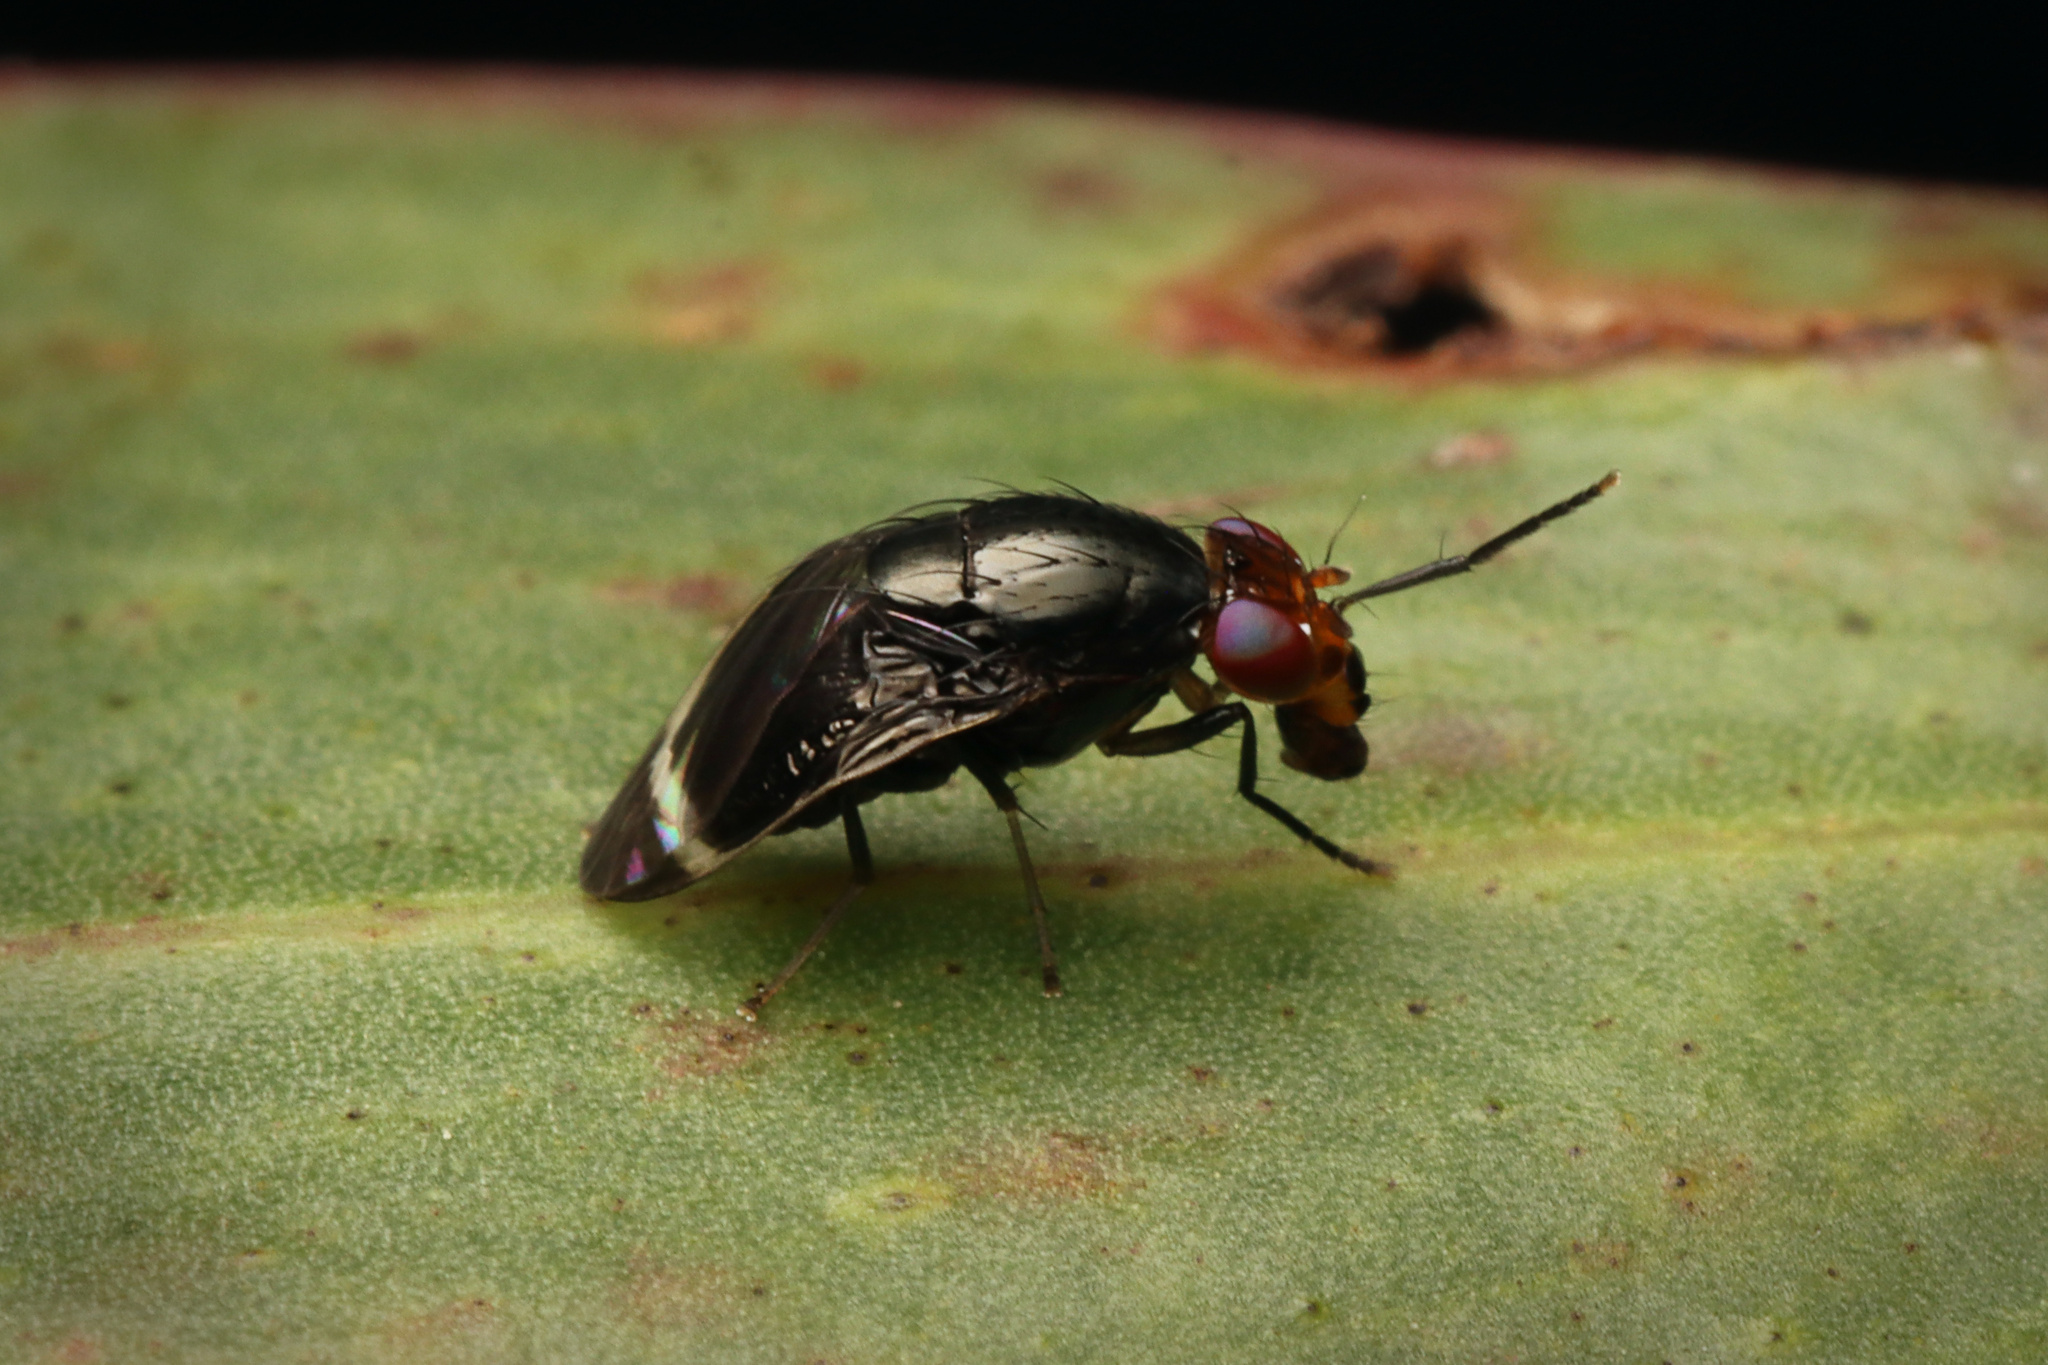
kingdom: Animalia
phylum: Arthropoda
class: Insecta
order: Diptera
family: Lauxaniidae
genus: Depressa
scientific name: Depressa atrata
